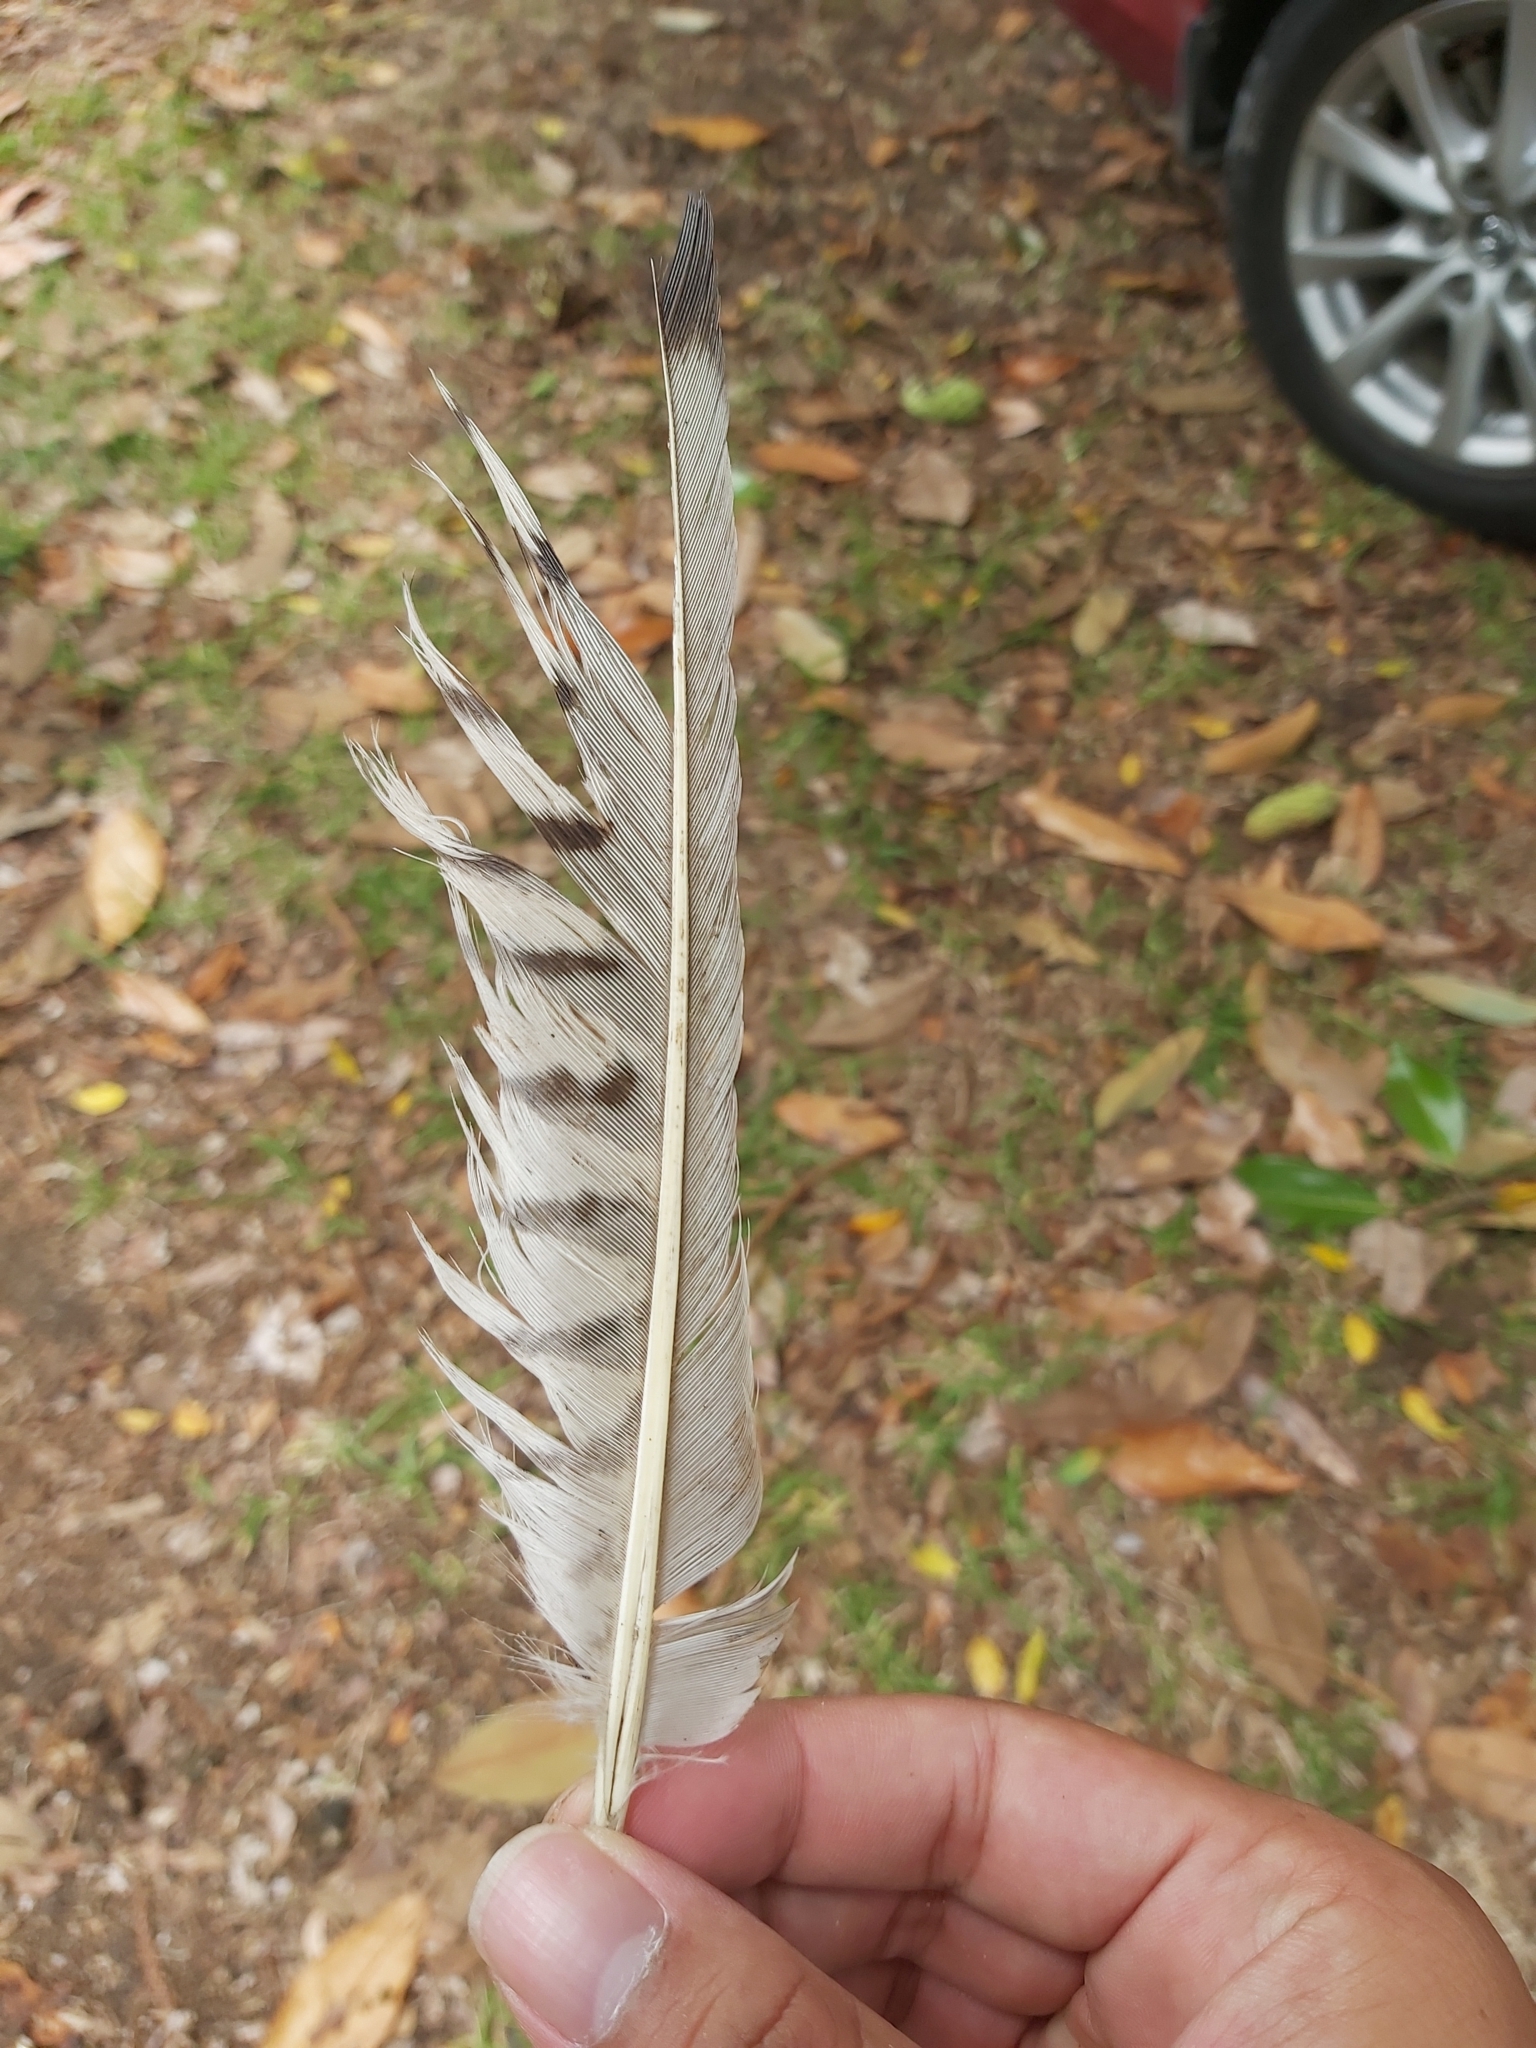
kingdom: Animalia
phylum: Chordata
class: Aves
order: Cuculiformes
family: Cuculidae
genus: Scythrops
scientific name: Scythrops novaehollandiae
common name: Channel-billed cuckoo
